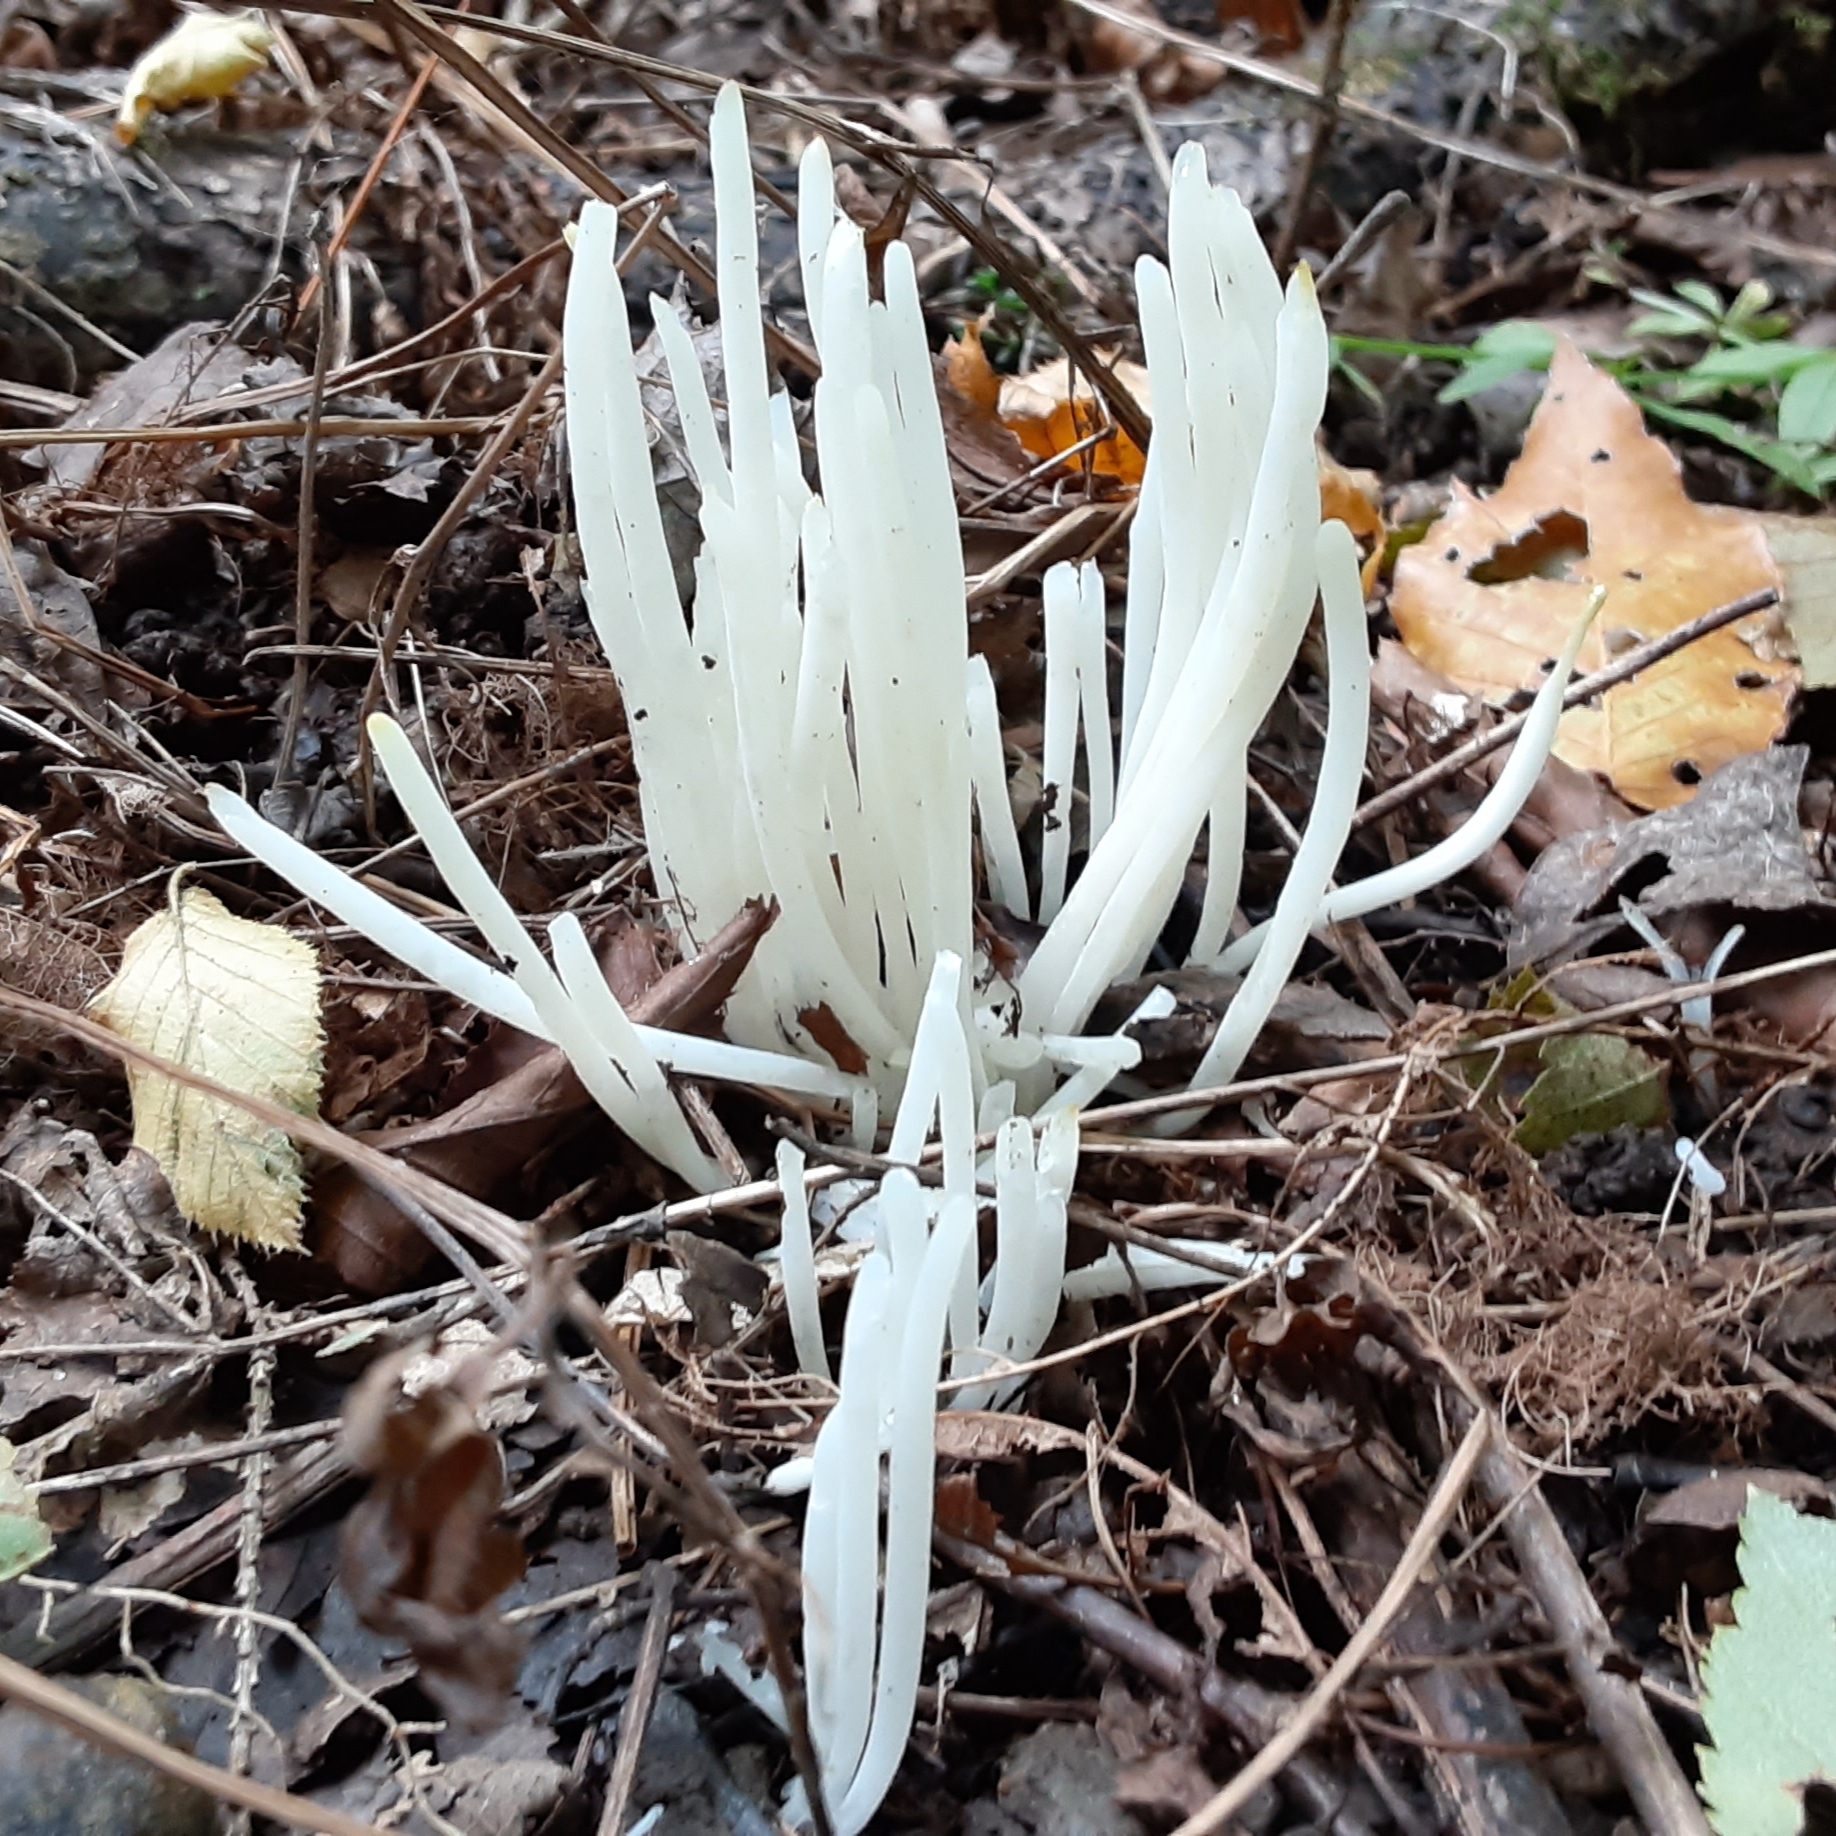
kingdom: Fungi
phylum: Basidiomycota
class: Agaricomycetes
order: Agaricales
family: Clavariaceae
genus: Clavaria
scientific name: Clavaria fragilis
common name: White spindles
